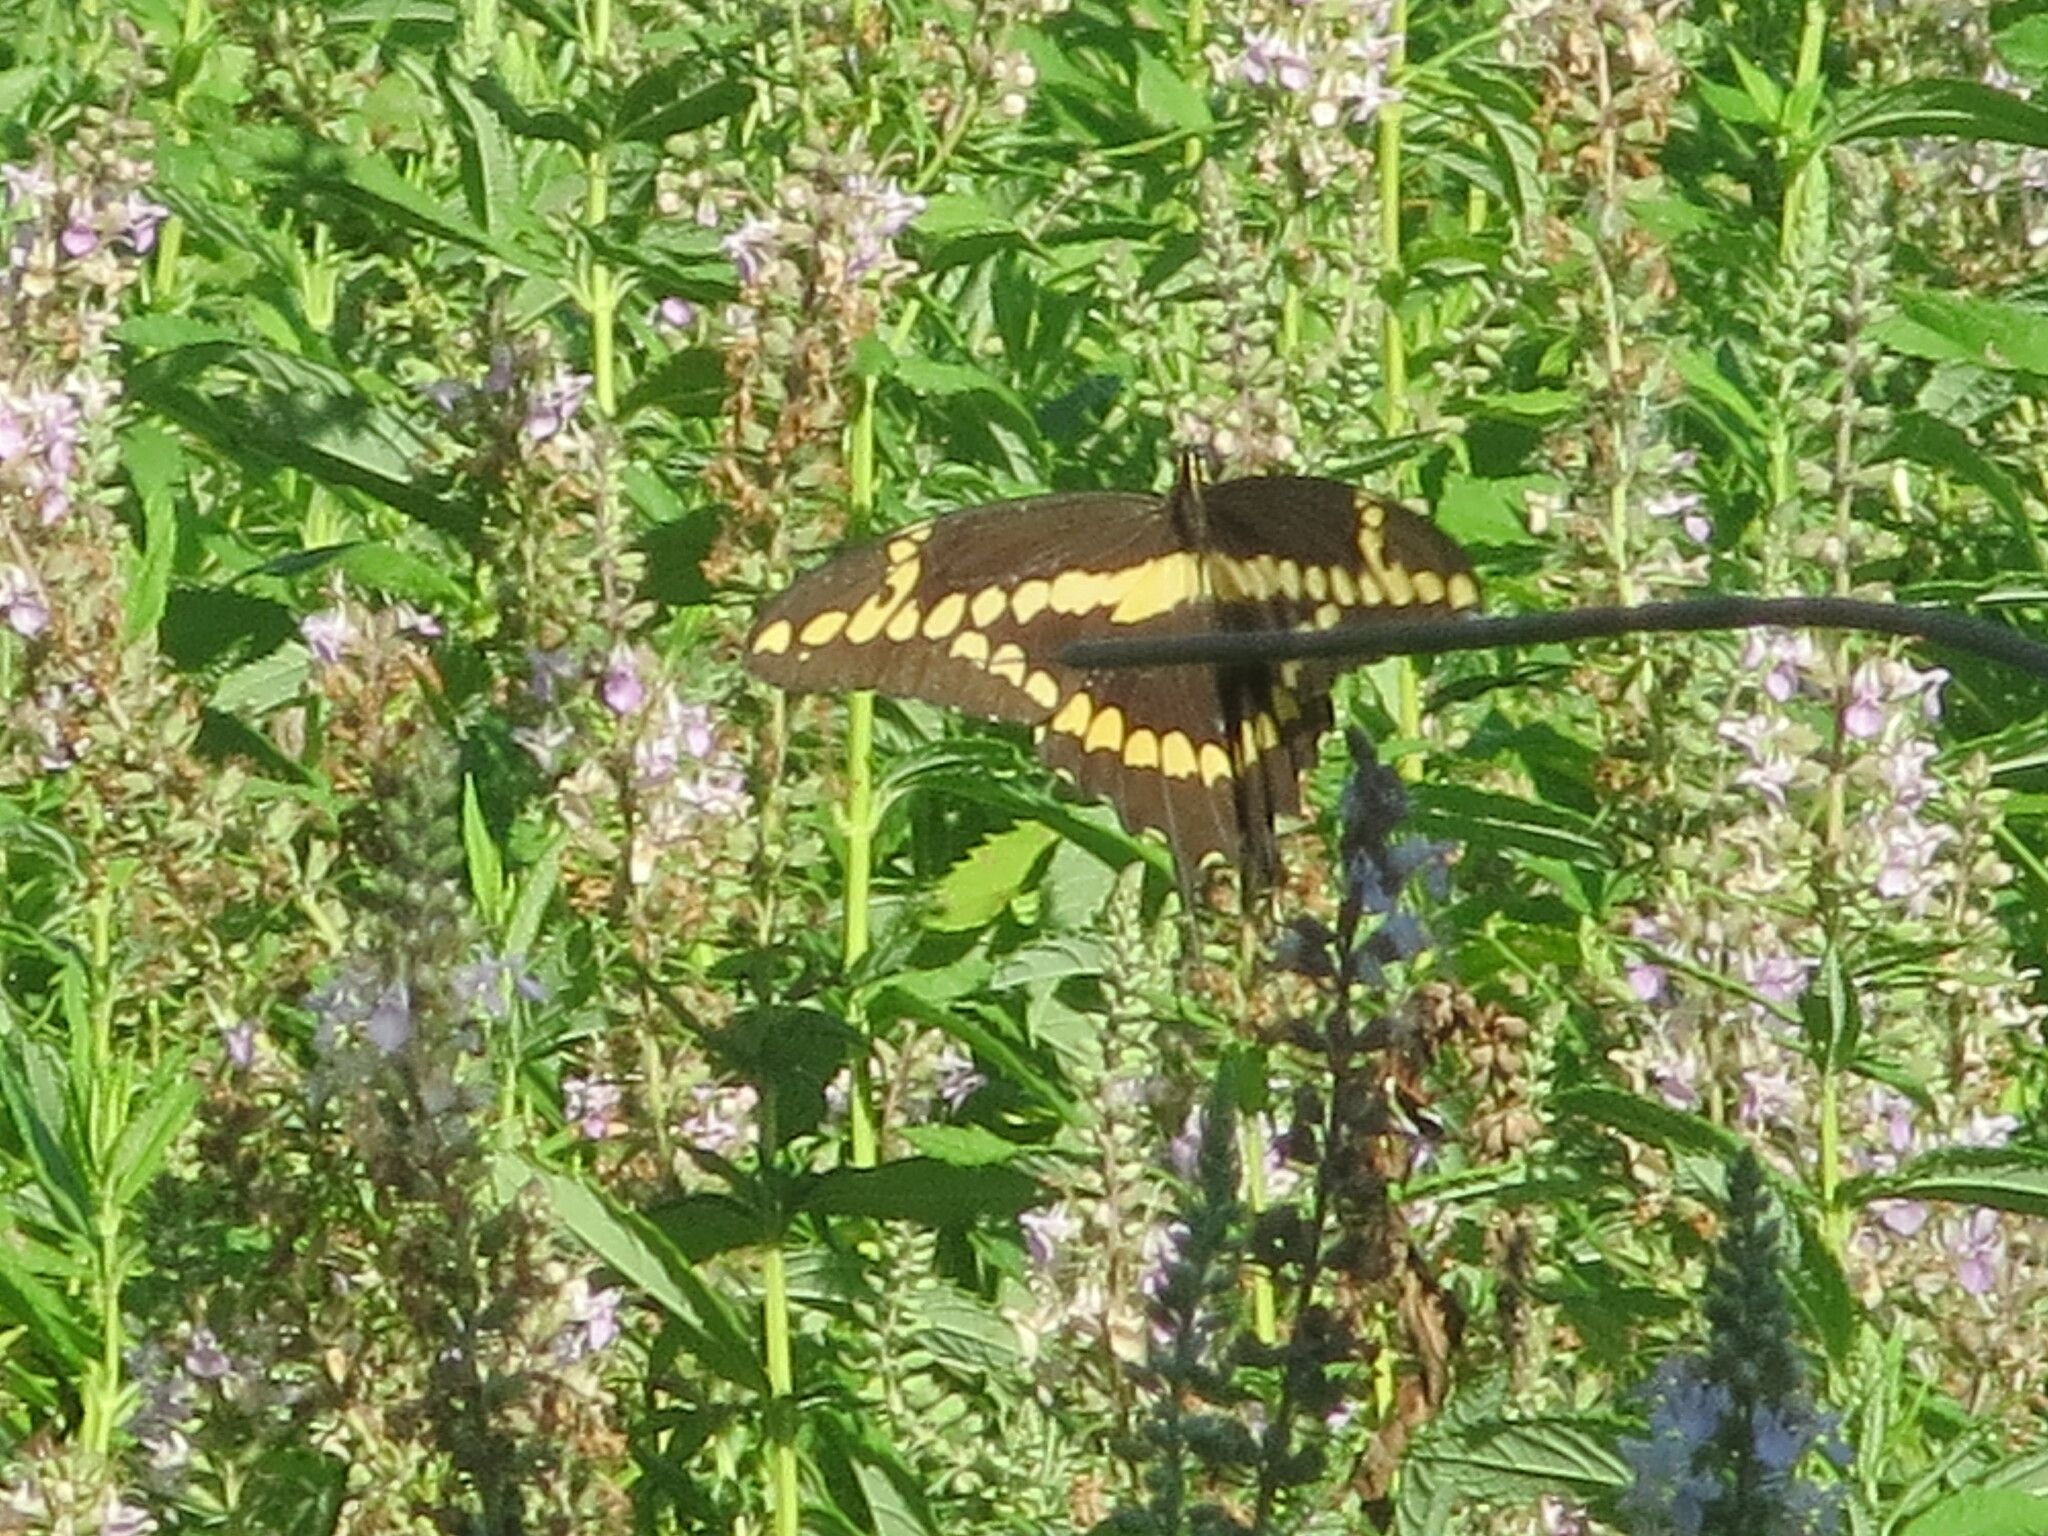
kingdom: Animalia
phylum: Arthropoda
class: Insecta
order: Lepidoptera
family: Papilionidae
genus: Papilio
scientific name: Papilio rumiko
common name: Western giant swallowtail
